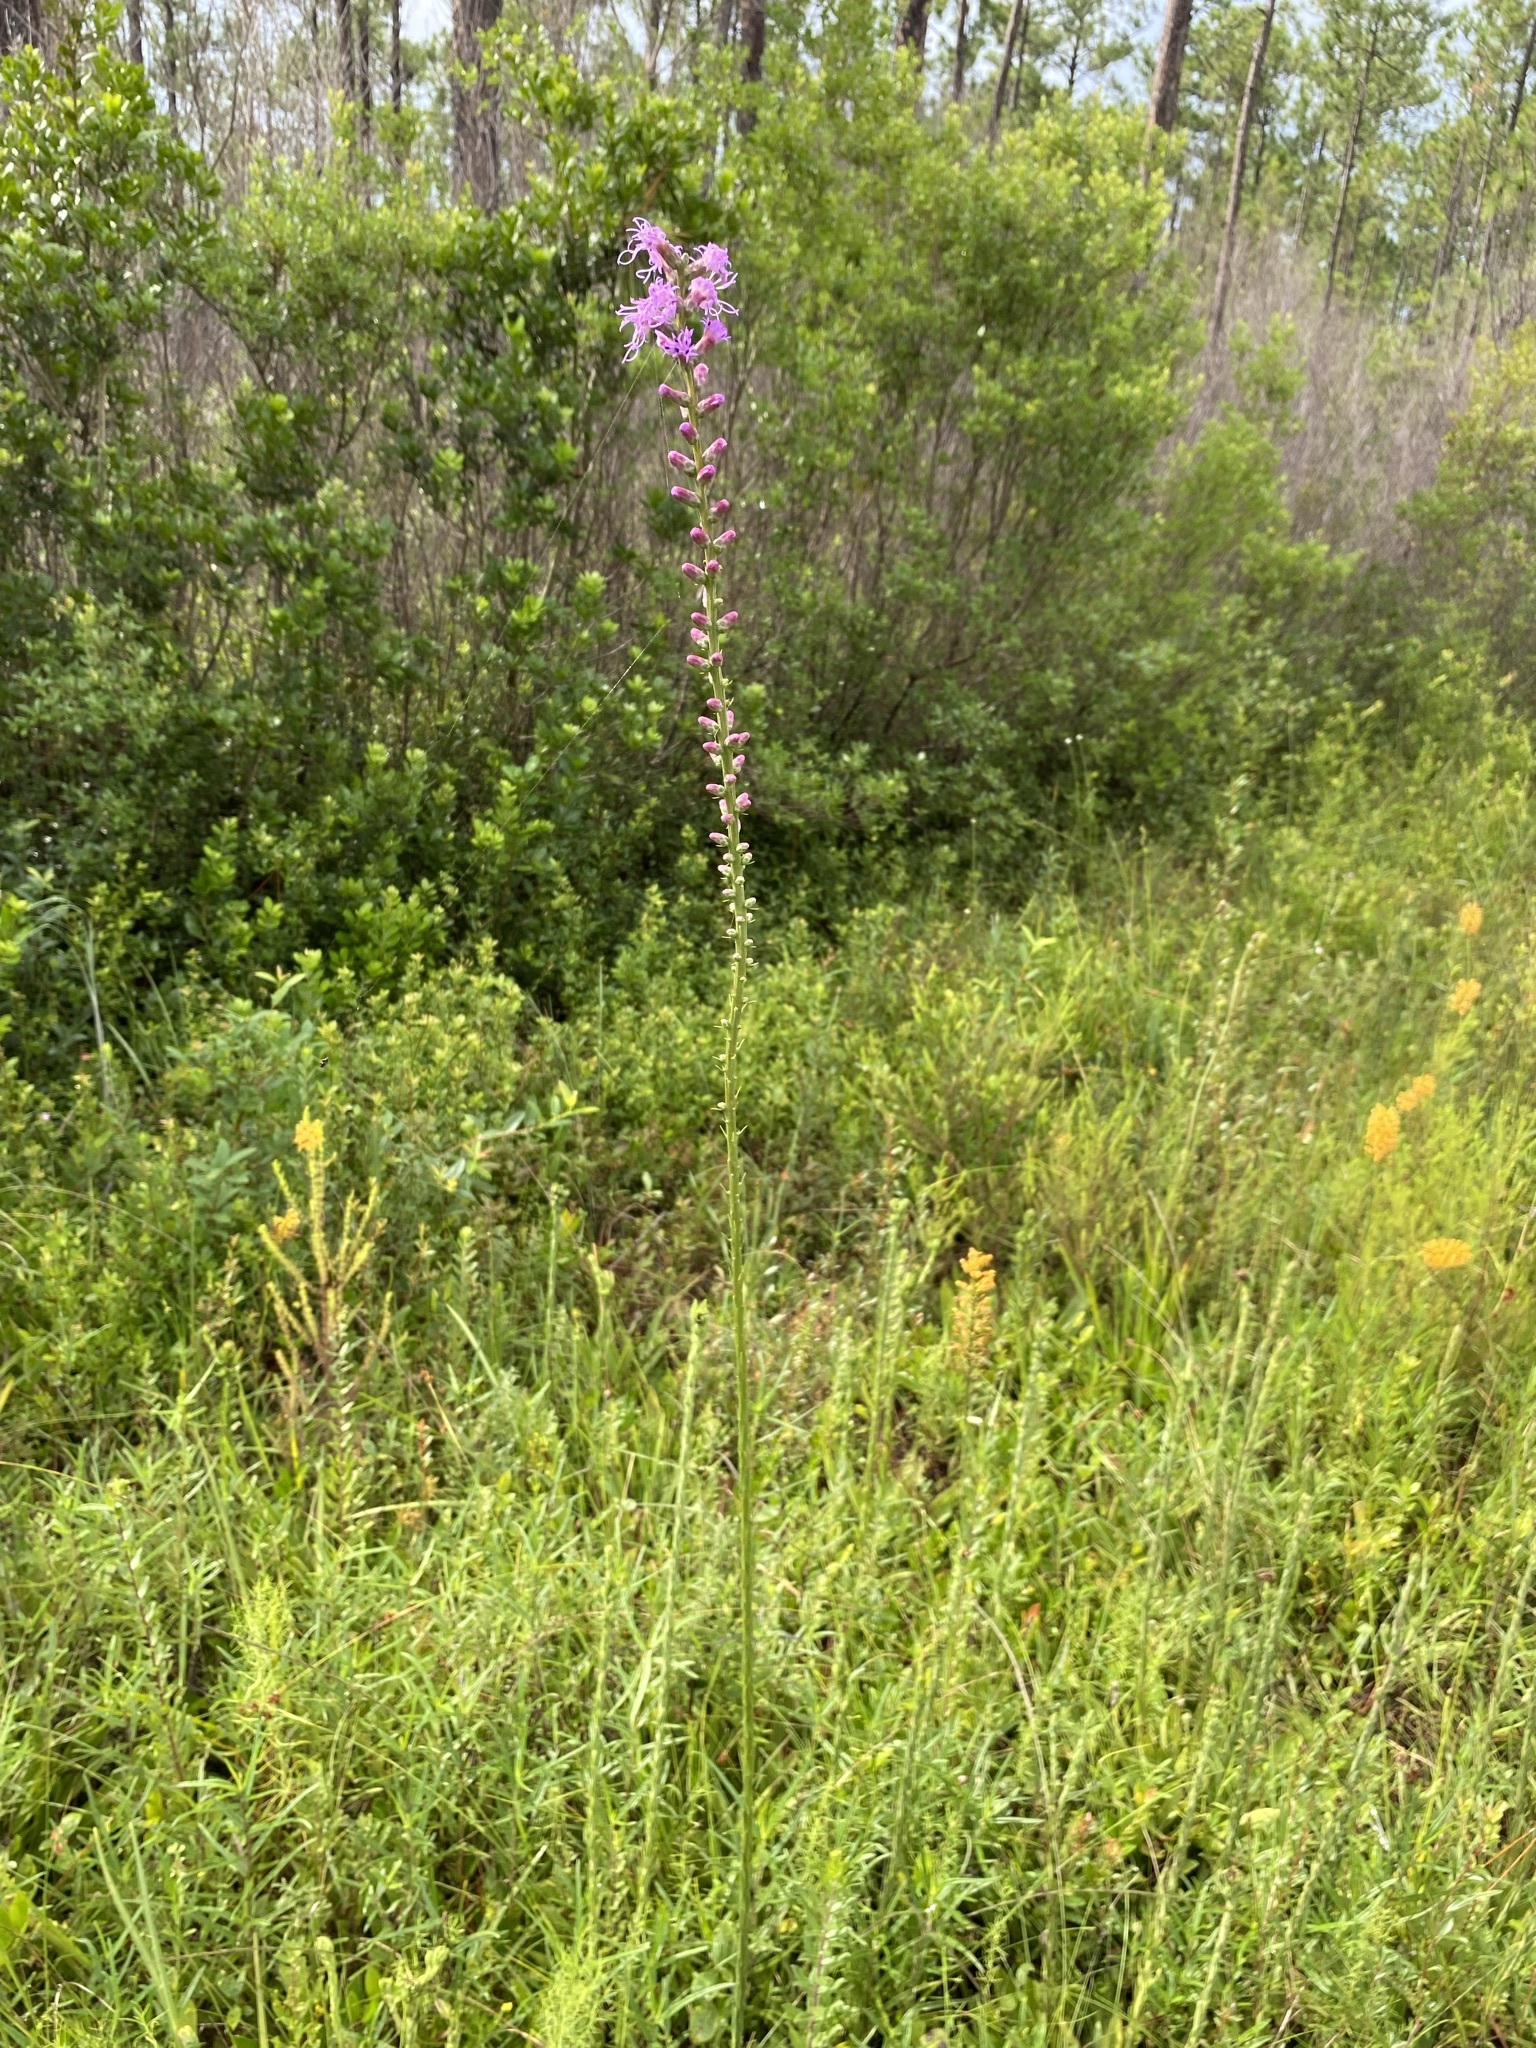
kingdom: Plantae
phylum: Tracheophyta
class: Magnoliopsida
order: Asterales
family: Asteraceae
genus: Liatris
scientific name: Liatris spicata
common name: Florist gayfeather
